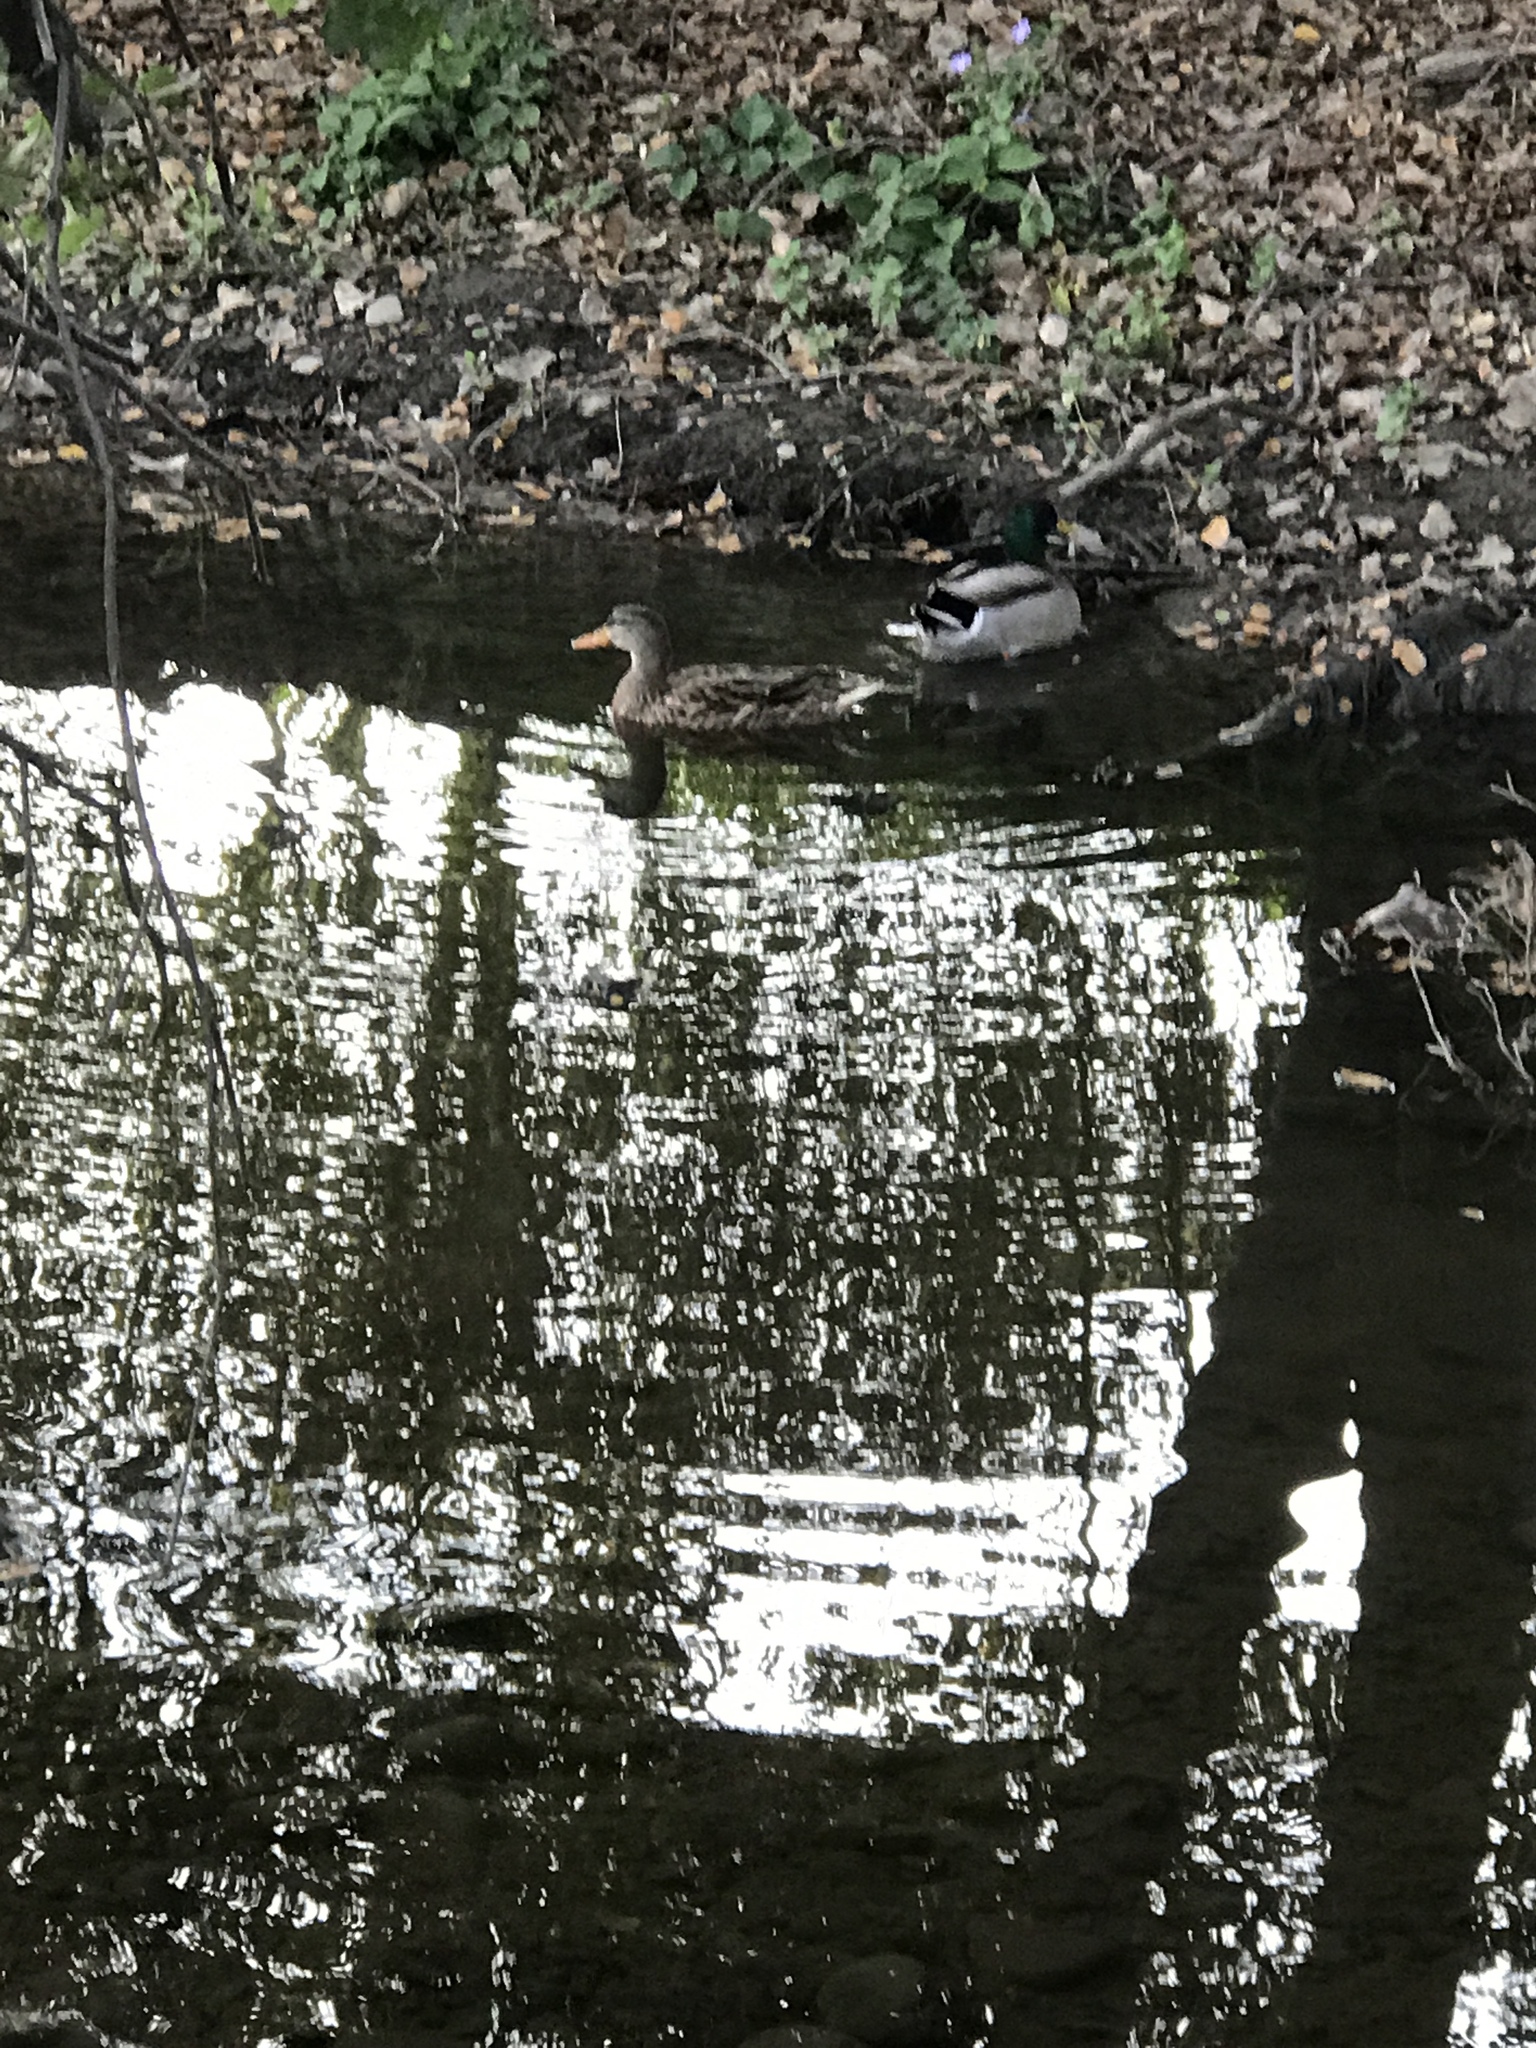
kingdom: Animalia
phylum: Chordata
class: Aves
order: Anseriformes
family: Anatidae
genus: Anas
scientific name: Anas platyrhynchos
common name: Mallard
